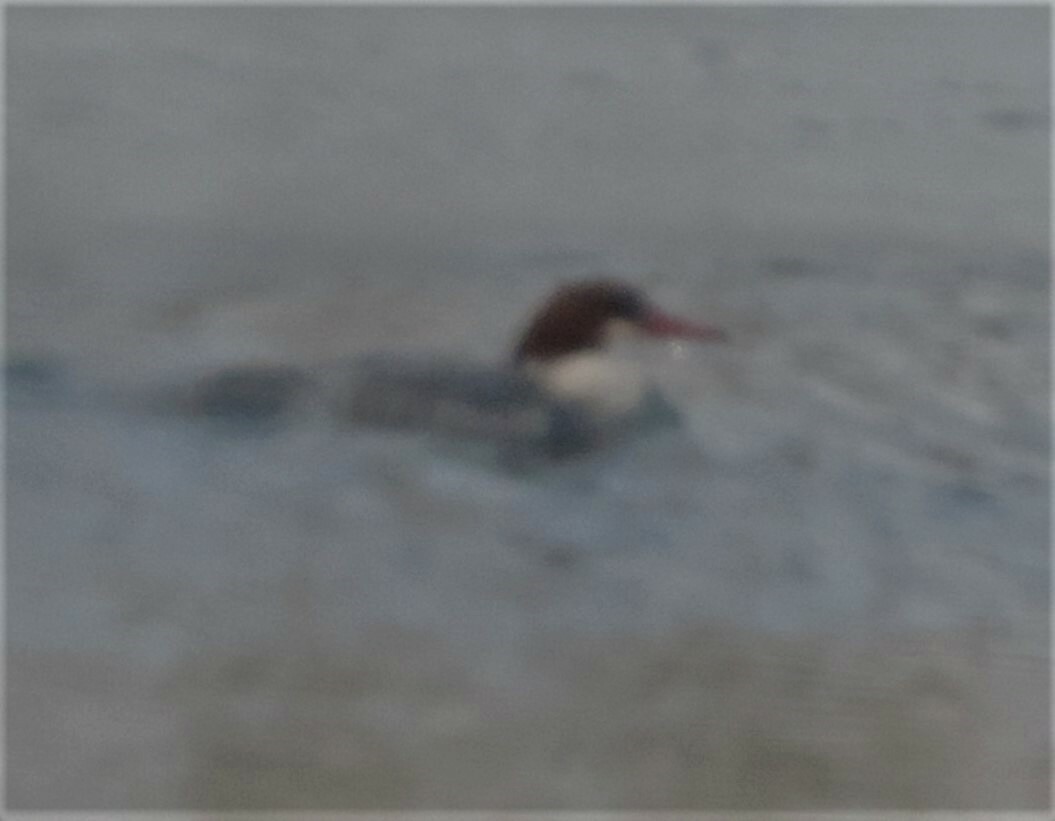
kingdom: Animalia
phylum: Chordata
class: Aves
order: Anseriformes
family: Anatidae
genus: Mergus
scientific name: Mergus merganser
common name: Common merganser
